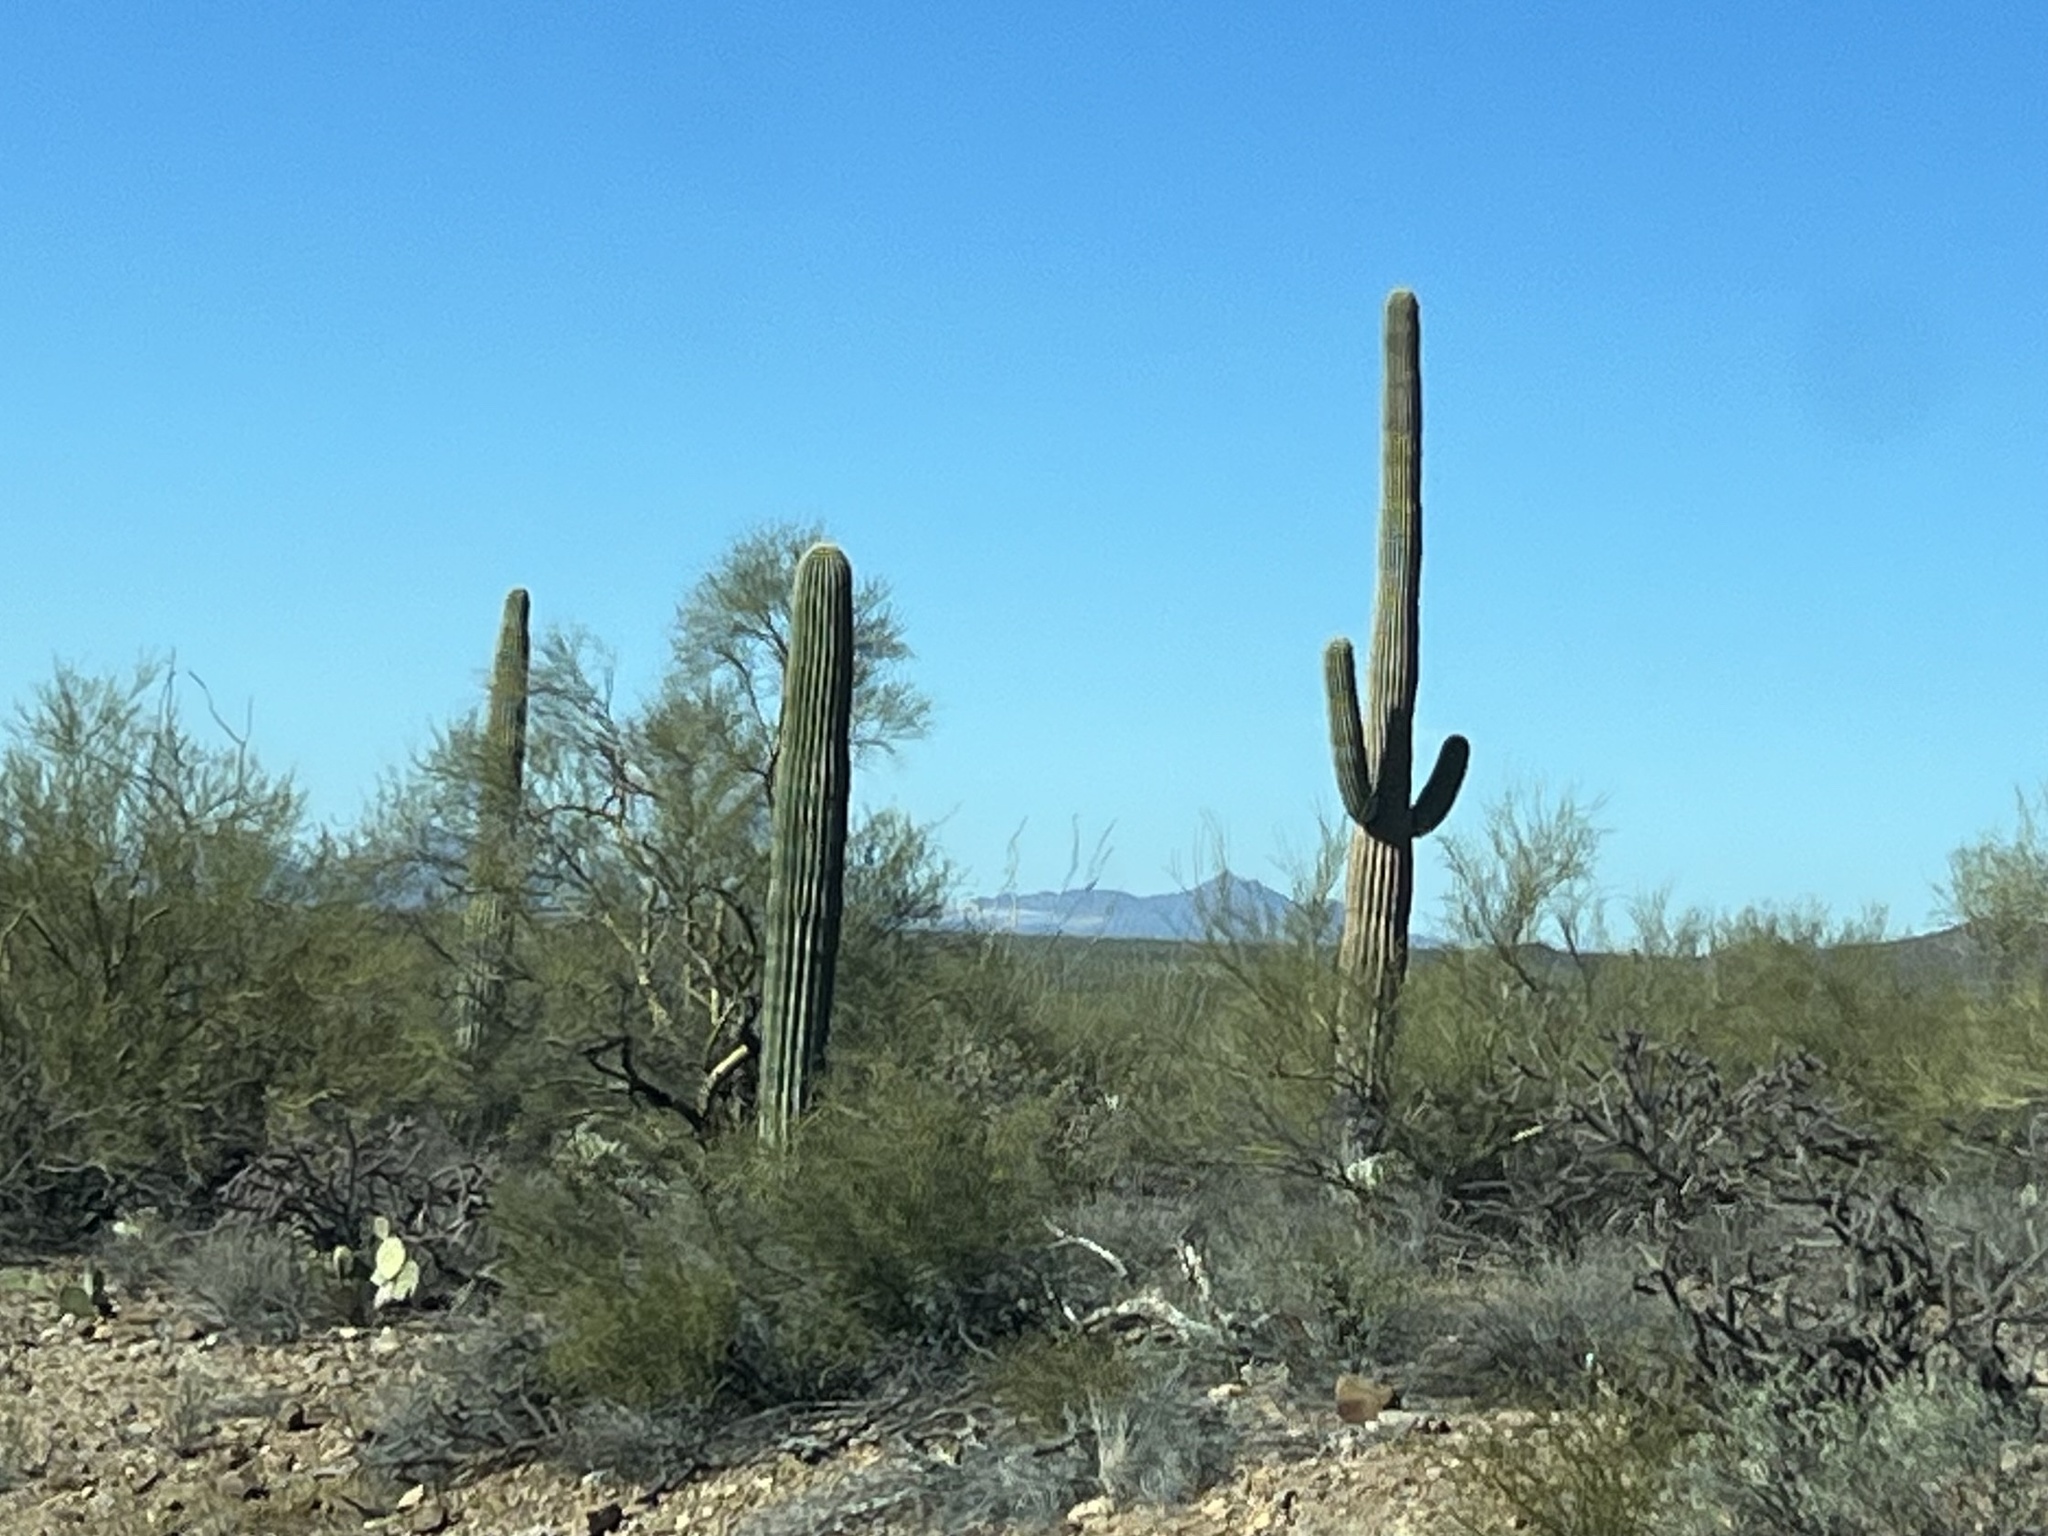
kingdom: Plantae
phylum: Tracheophyta
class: Magnoliopsida
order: Caryophyllales
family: Cactaceae
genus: Carnegiea
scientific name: Carnegiea gigantea
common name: Saguaro
